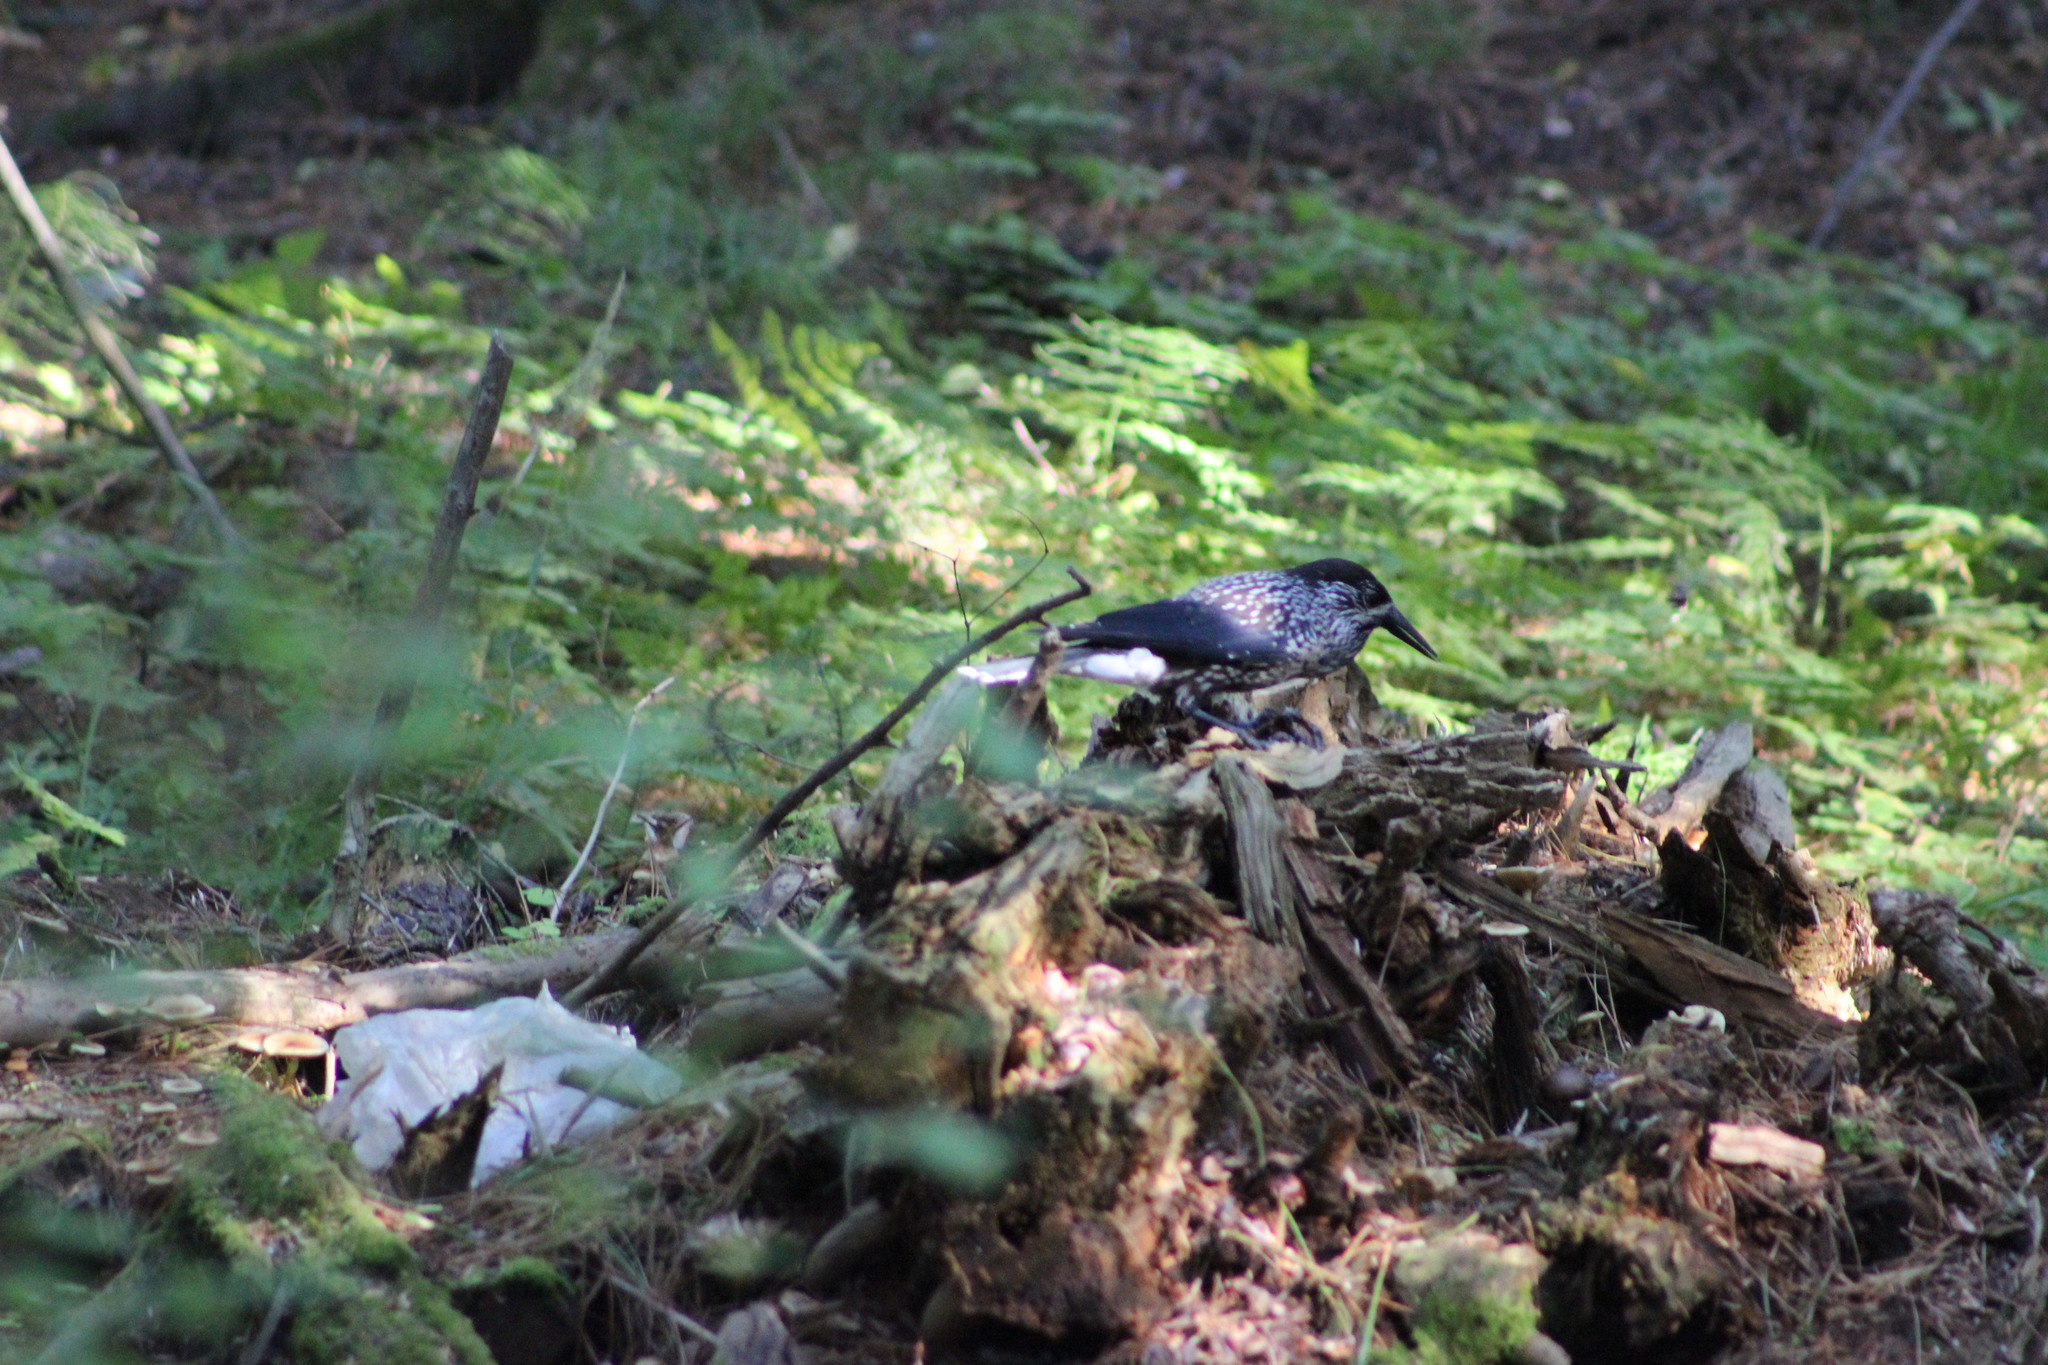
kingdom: Animalia
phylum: Chordata
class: Aves
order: Passeriformes
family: Corvidae
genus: Nucifraga
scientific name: Nucifraga caryocatactes
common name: Spotted nutcracker
